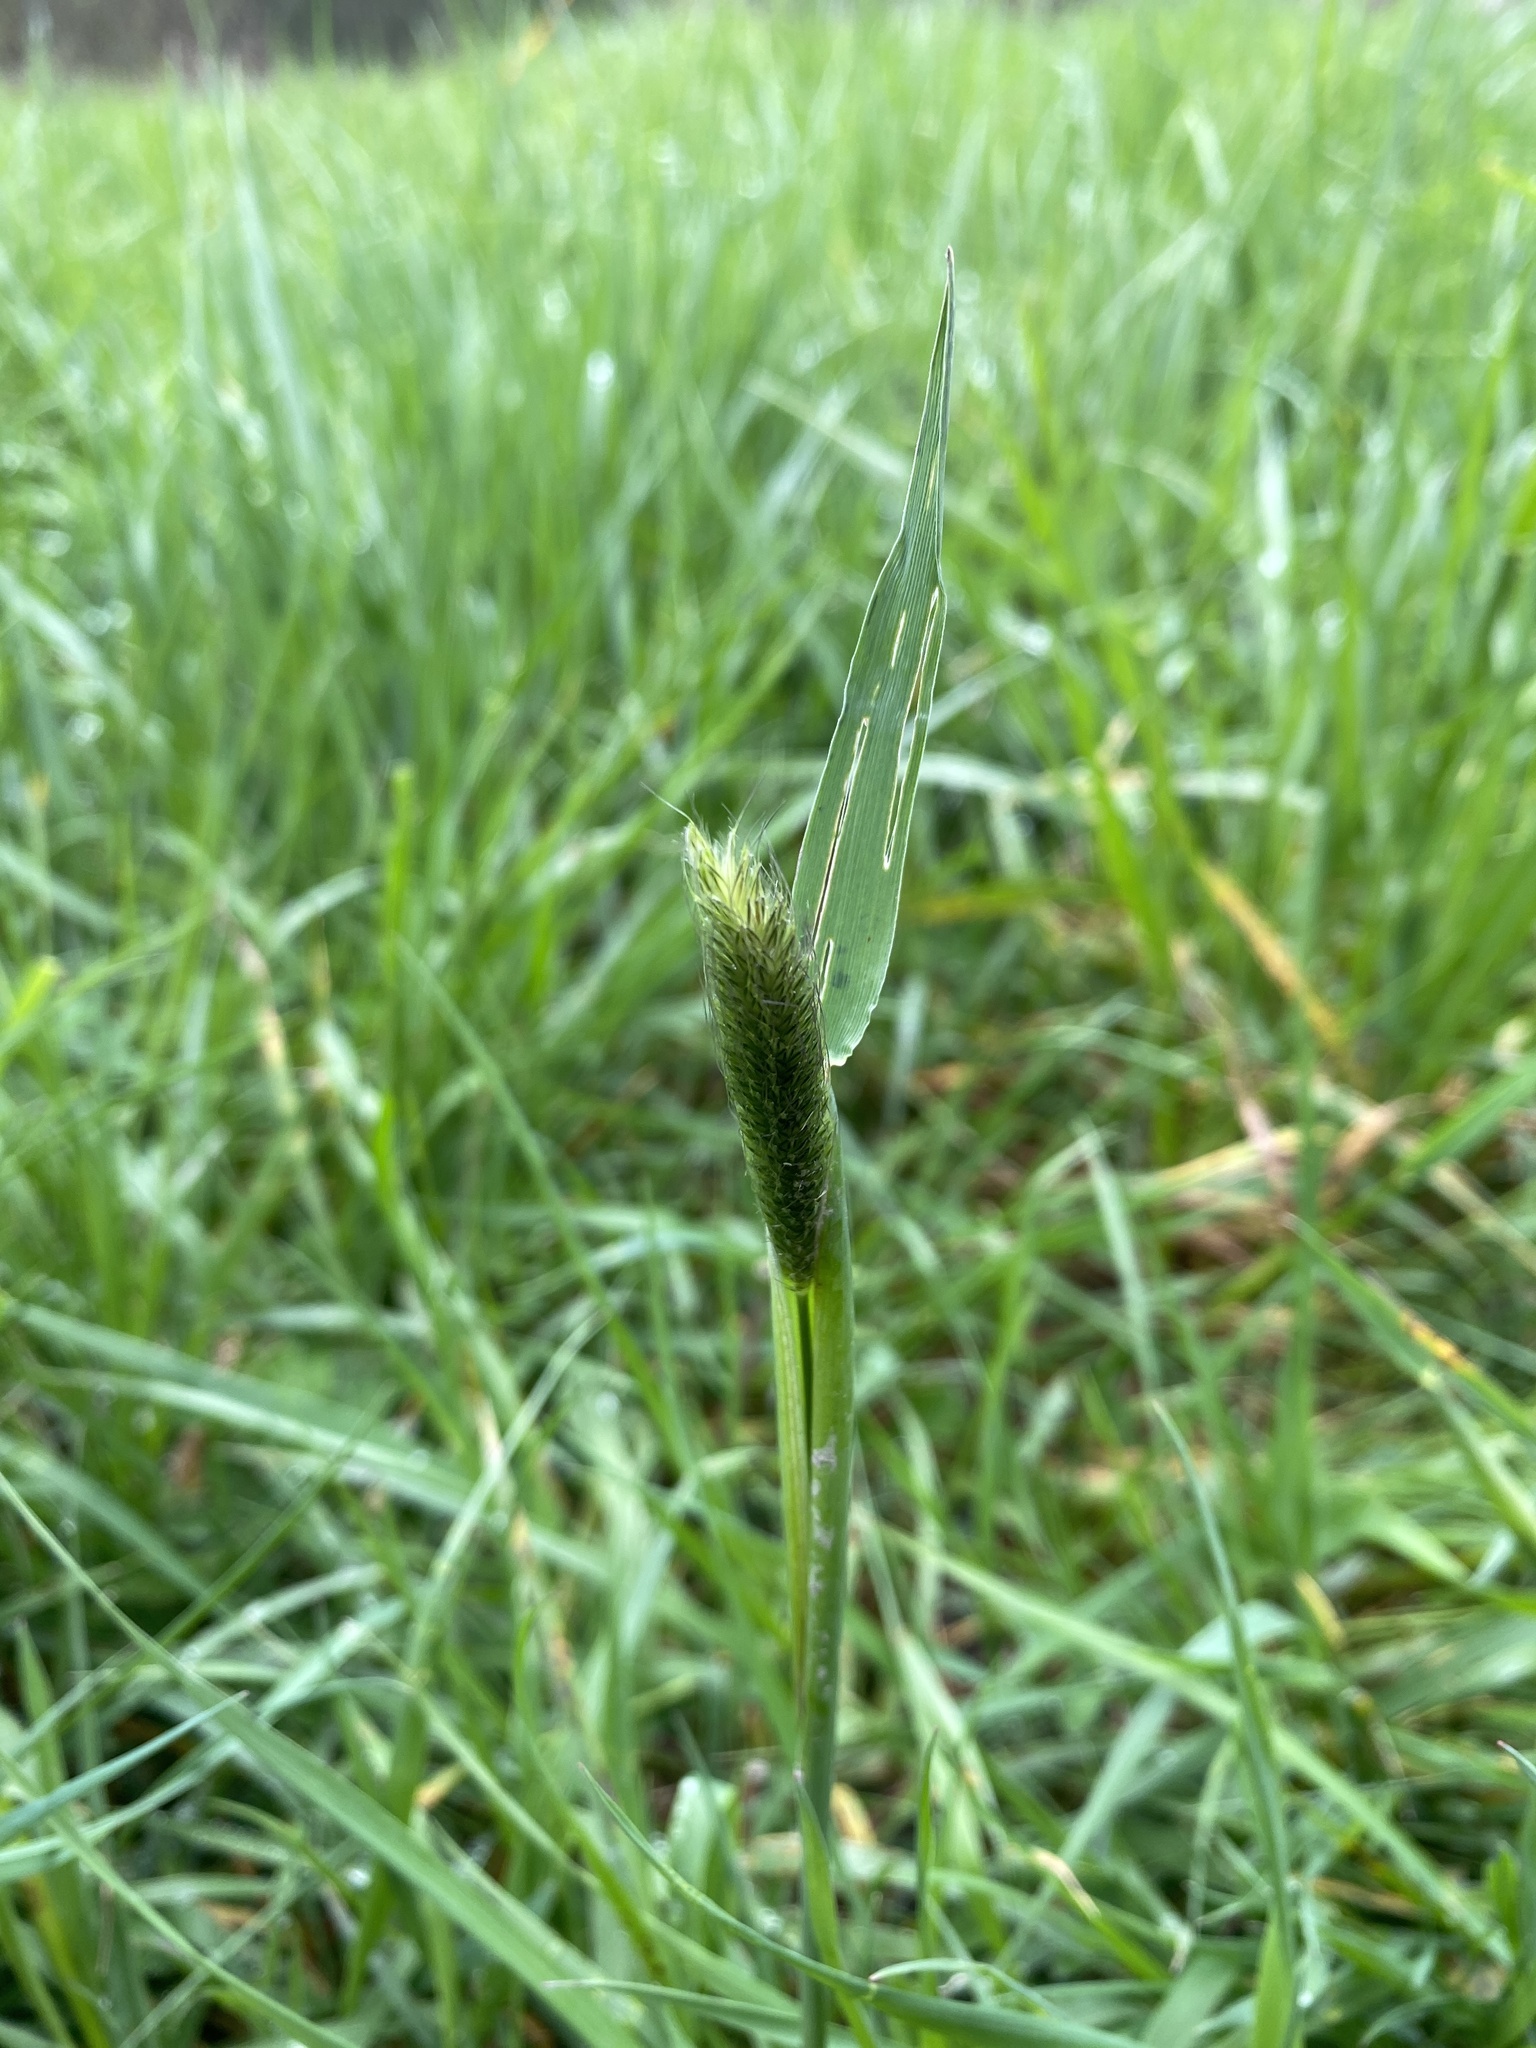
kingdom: Plantae
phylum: Tracheophyta
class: Liliopsida
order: Poales
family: Poaceae
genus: Alopecurus
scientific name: Alopecurus pratensis
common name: Meadow foxtail
